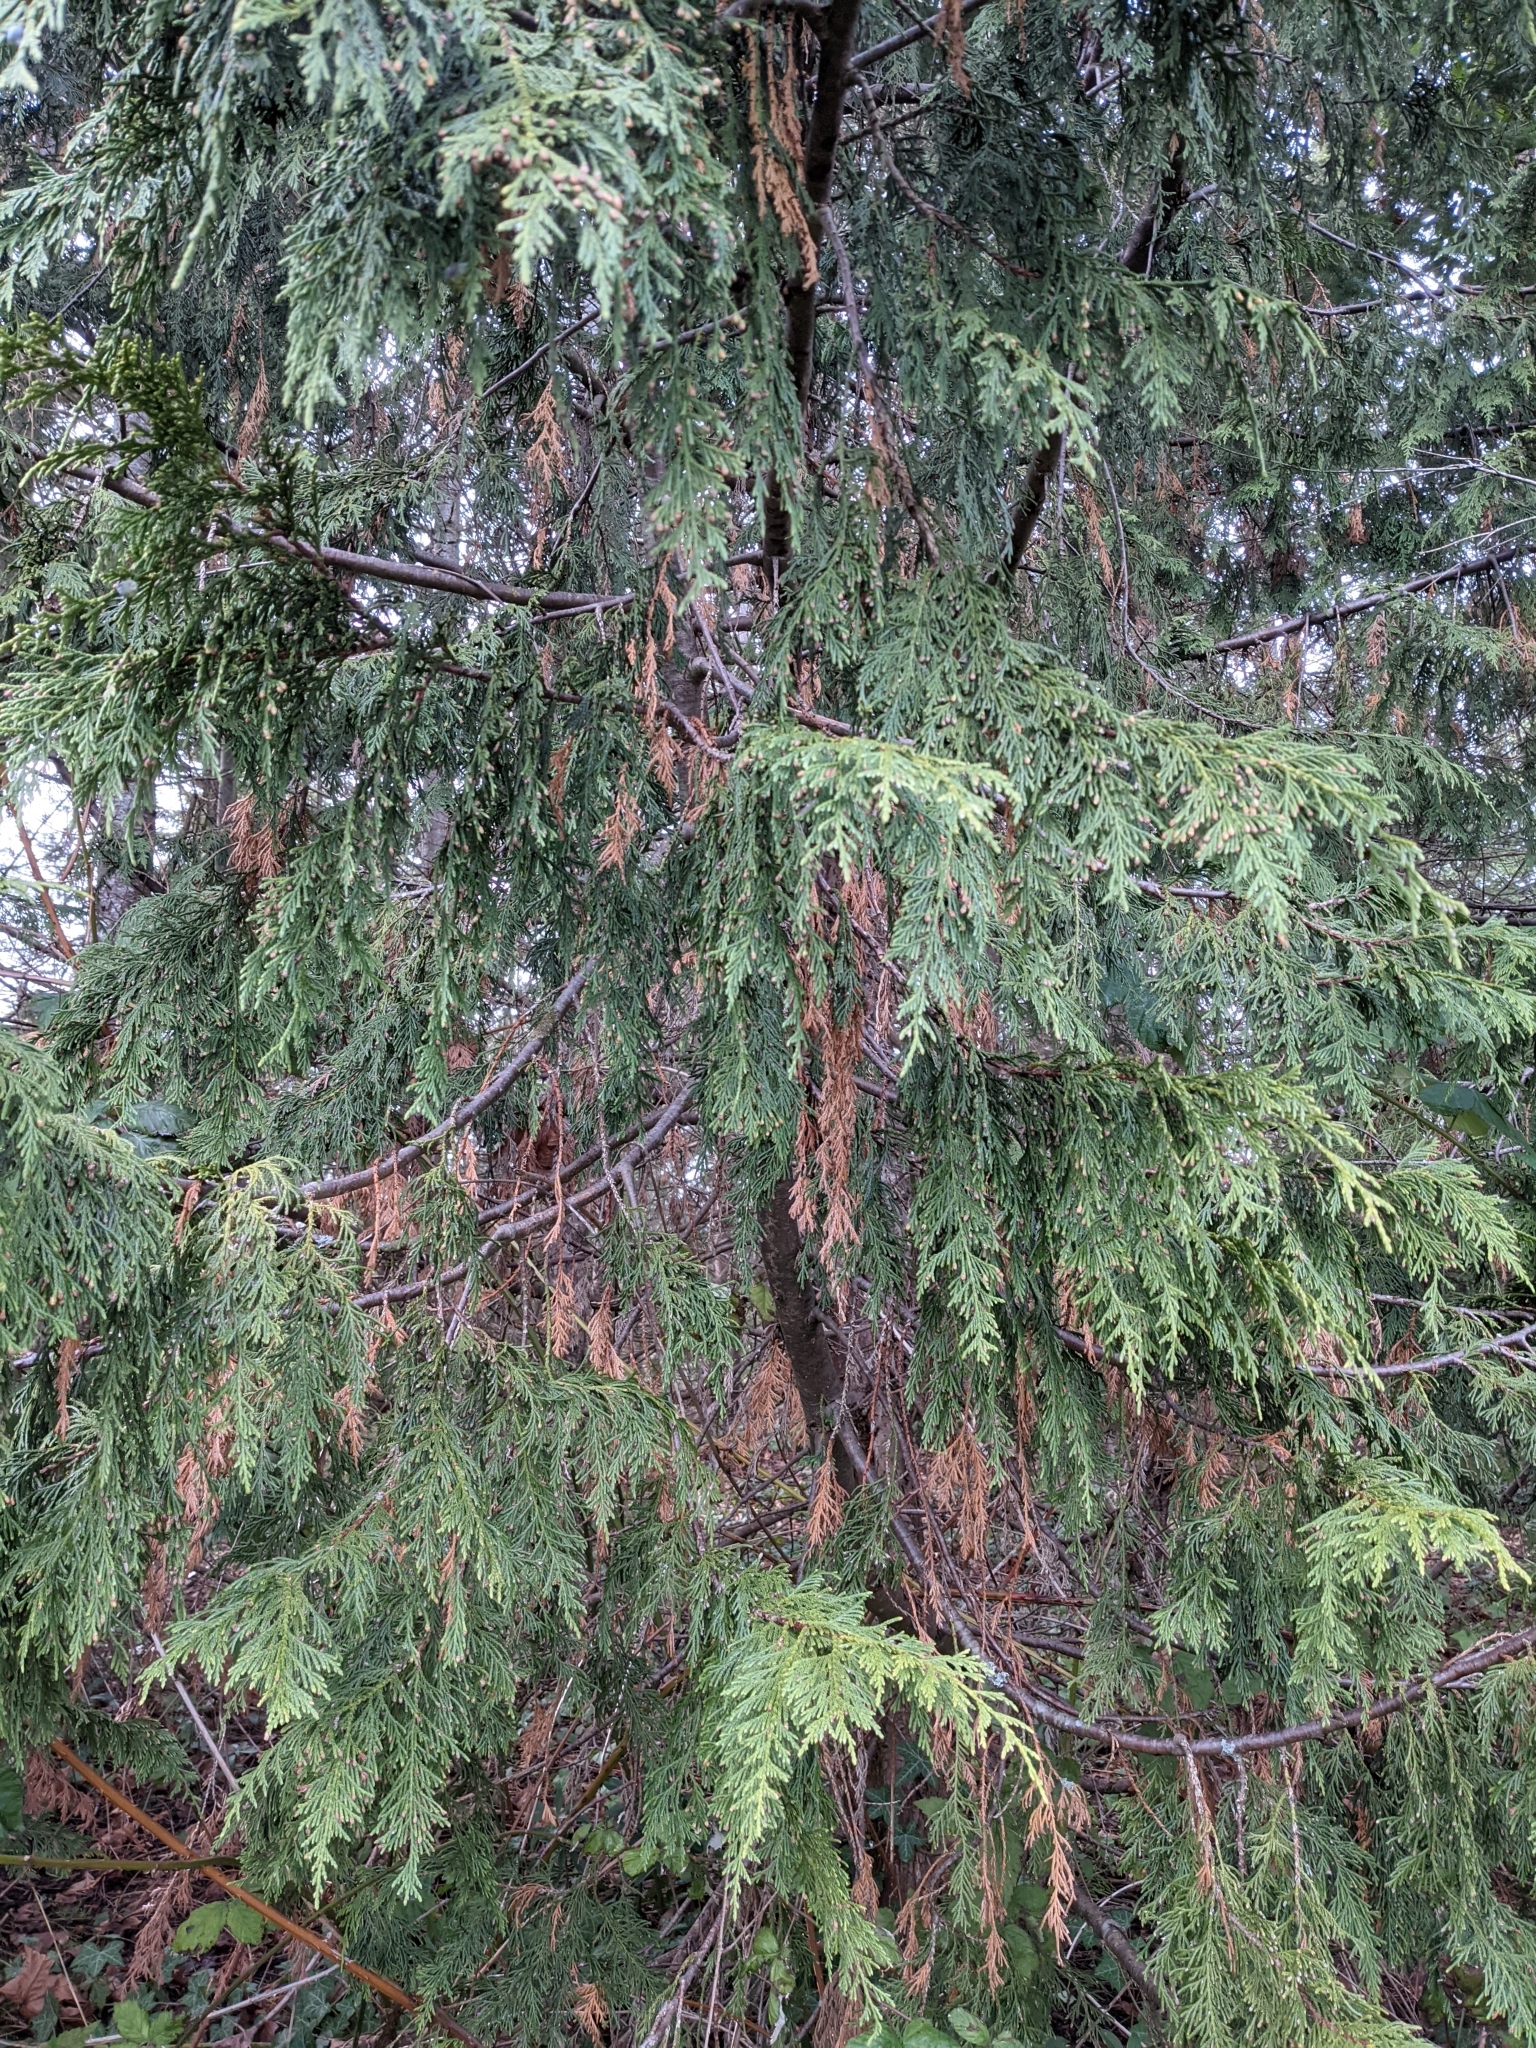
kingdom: Plantae
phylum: Tracheophyta
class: Pinopsida
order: Pinales
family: Cupressaceae
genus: Thuja
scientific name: Thuja plicata
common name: Western red-cedar
